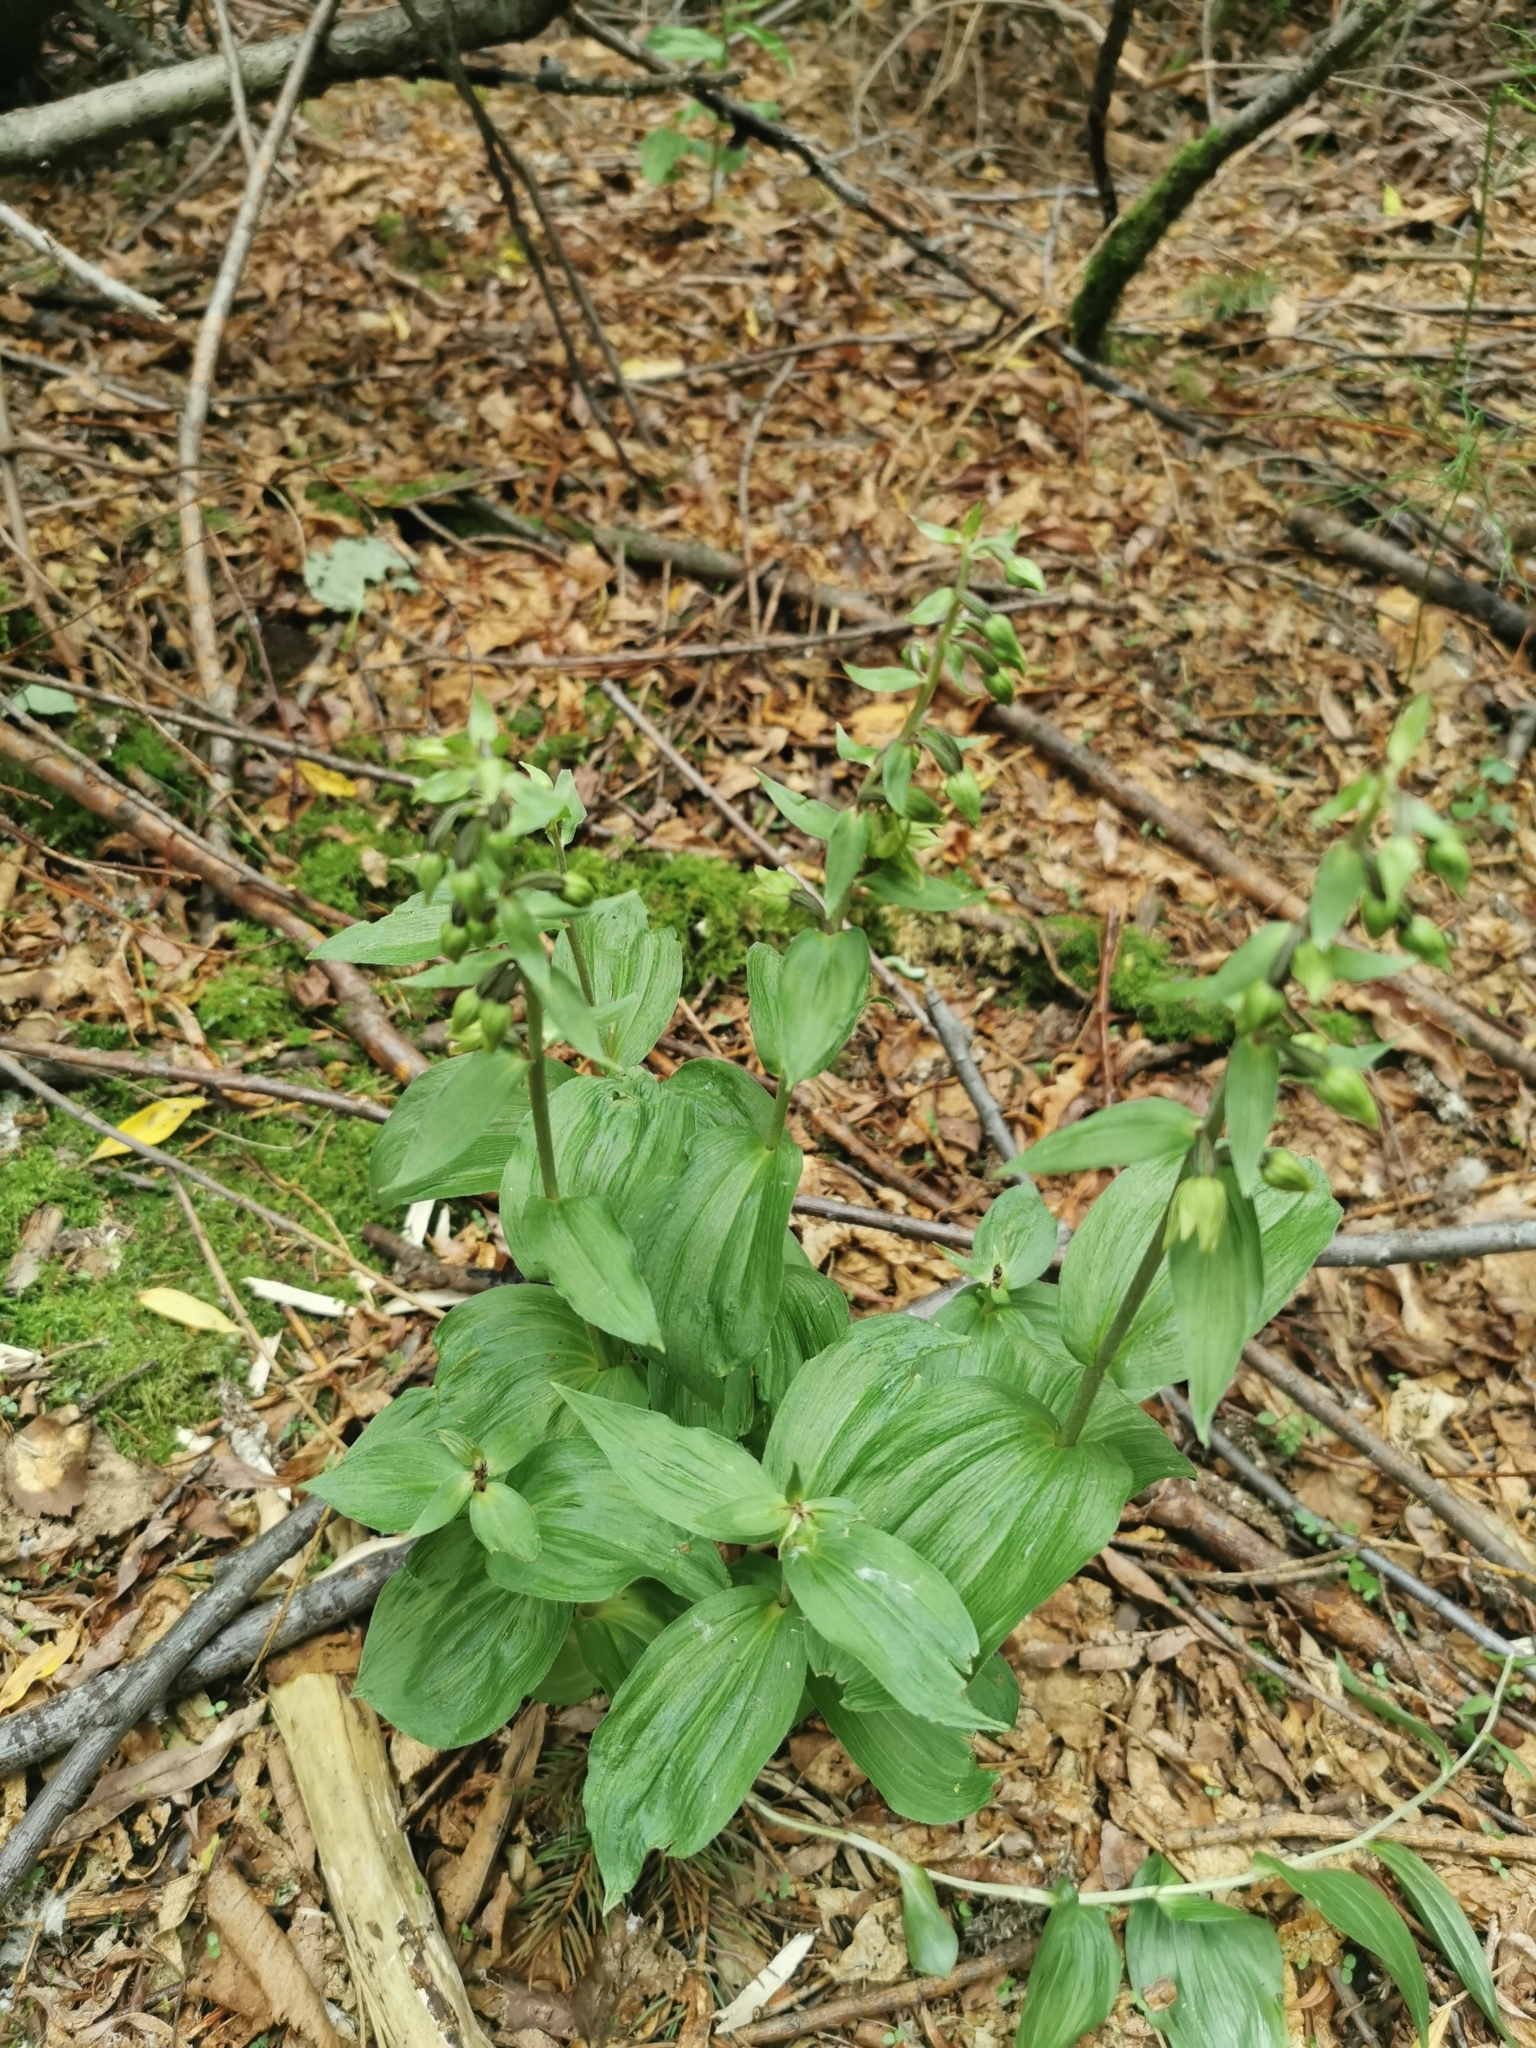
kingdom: Plantae
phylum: Tracheophyta
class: Liliopsida
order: Asparagales
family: Orchidaceae
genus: Epipactis
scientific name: Epipactis papillosa
